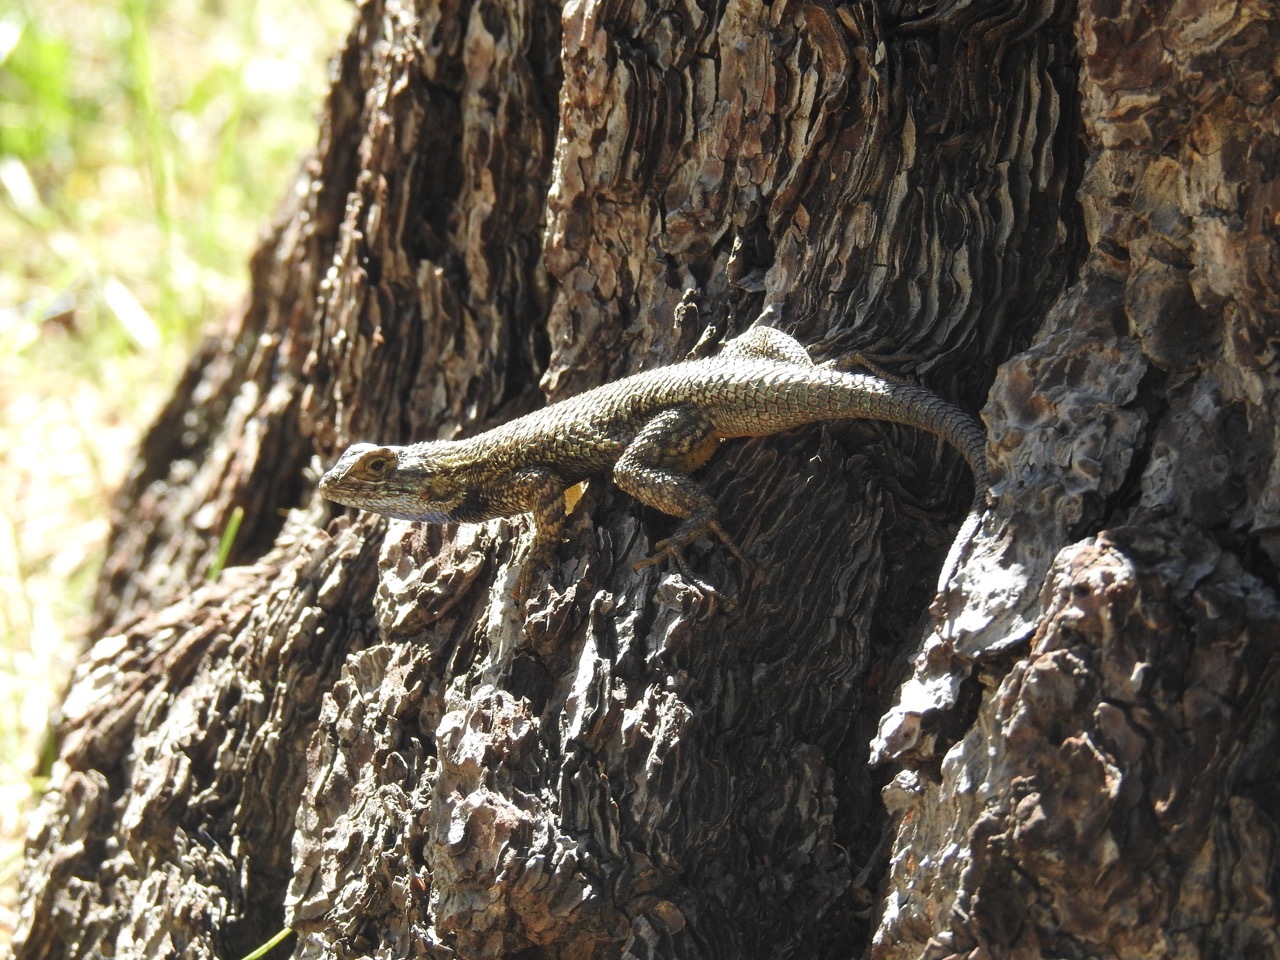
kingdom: Animalia
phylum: Chordata
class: Squamata
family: Phrynosomatidae
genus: Sceloporus
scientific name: Sceloporus occidentalis
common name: Western fence lizard
